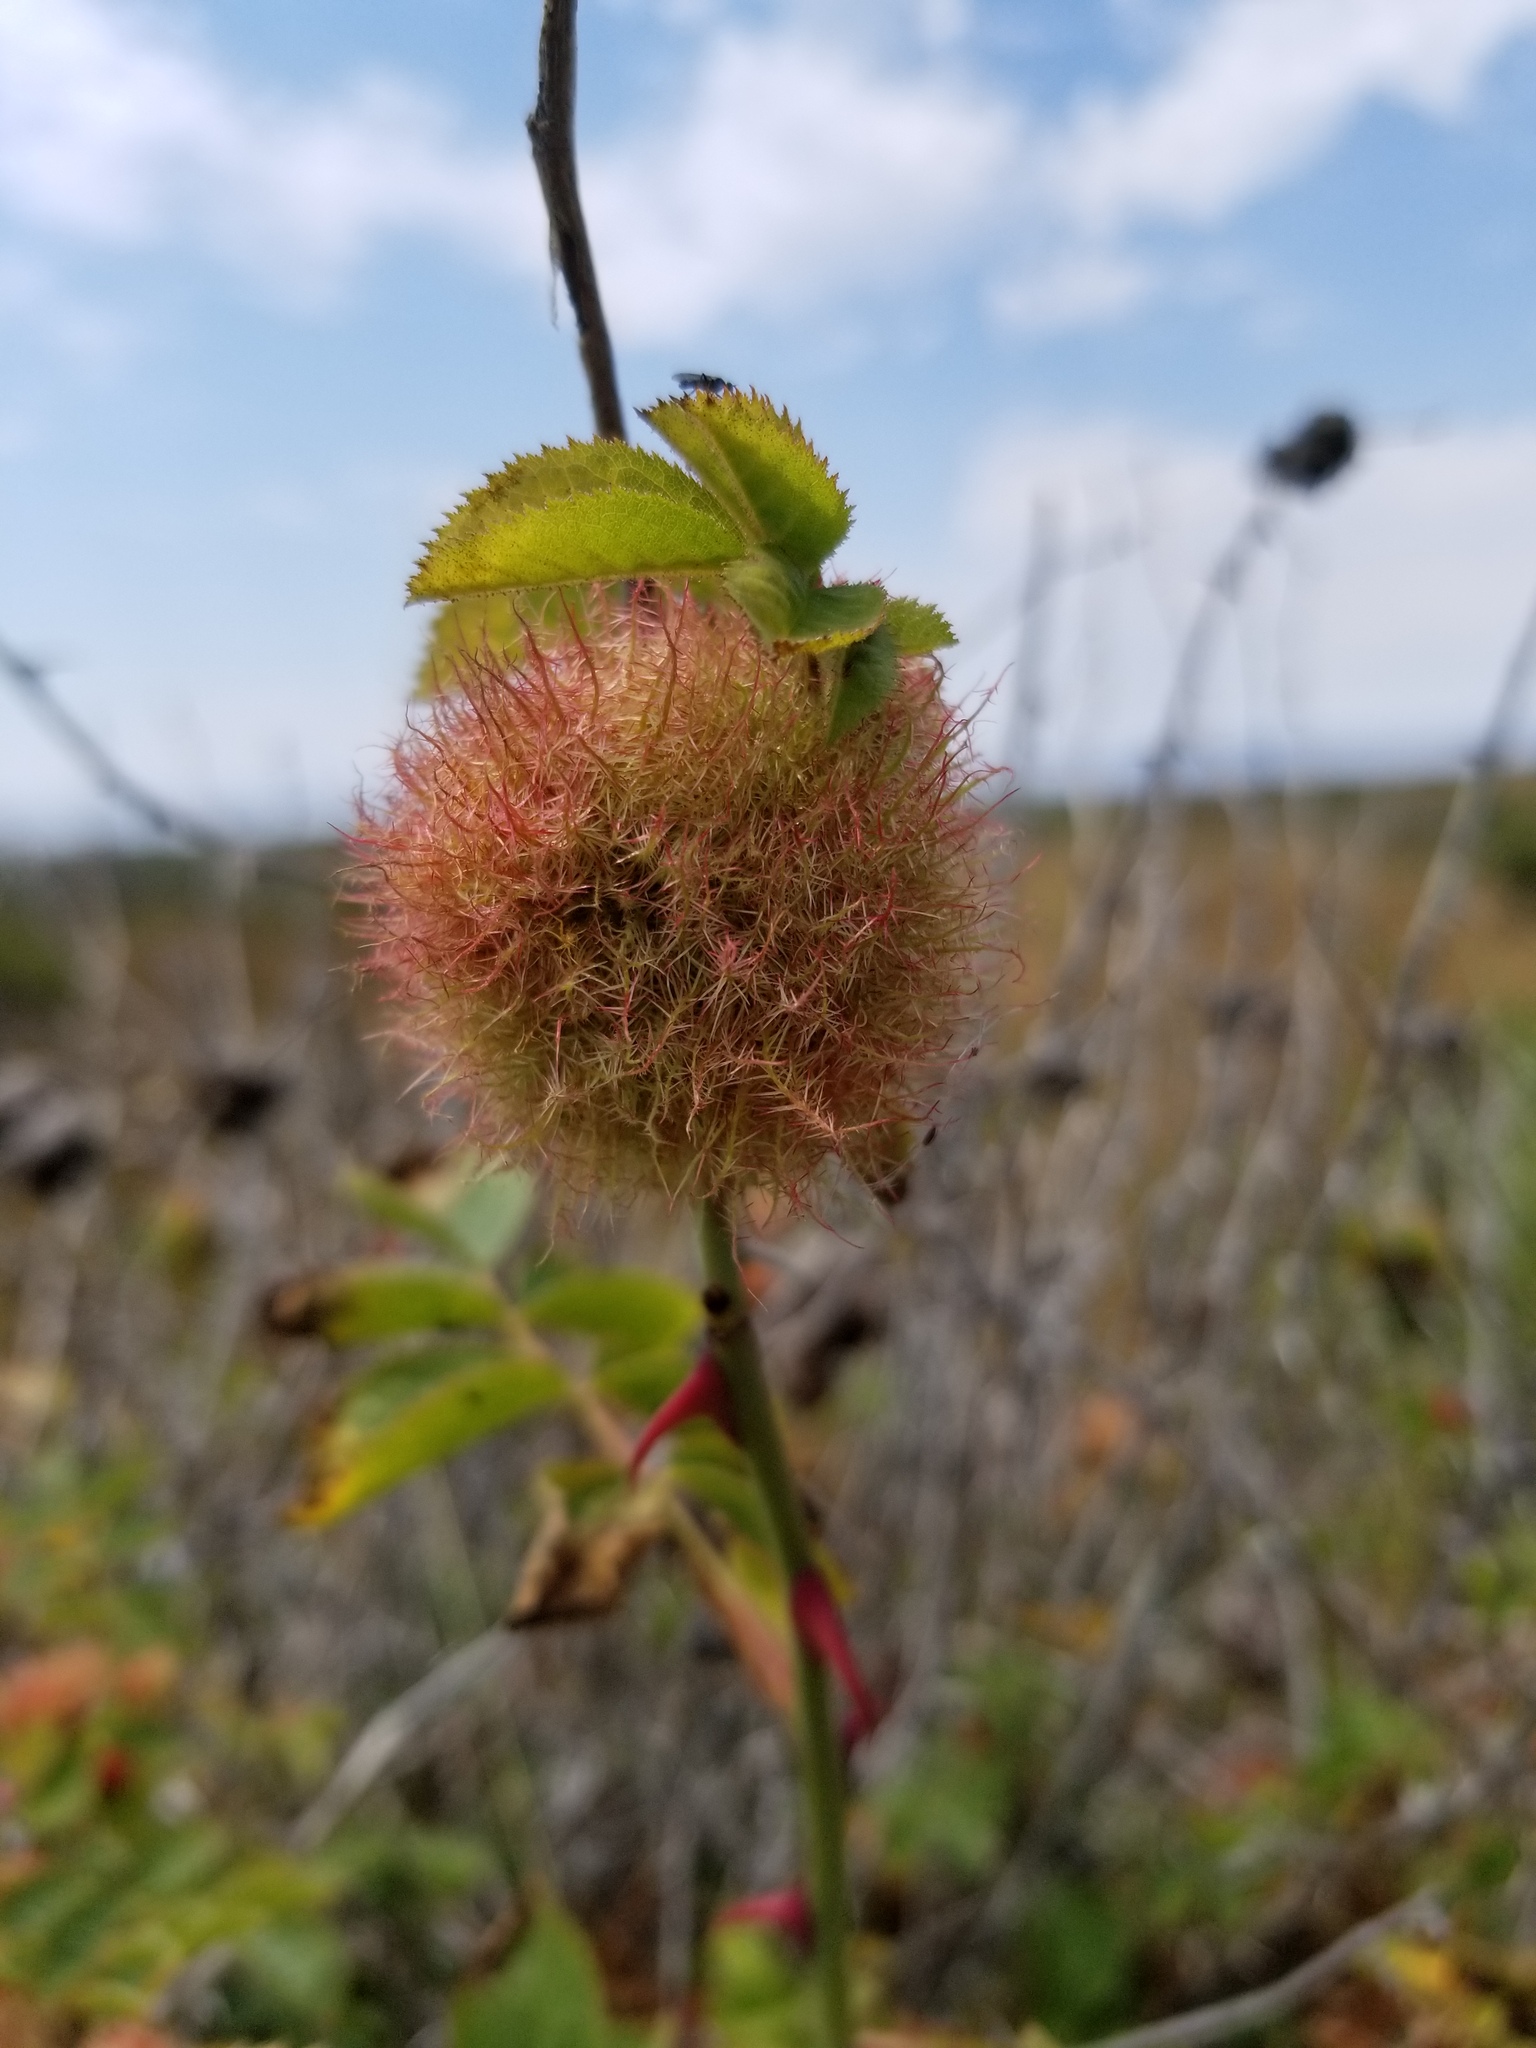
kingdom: Animalia
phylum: Arthropoda
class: Insecta
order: Hymenoptera
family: Cynipidae
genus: Diplolepis
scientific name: Diplolepis rosae
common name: Bedeguar gall
